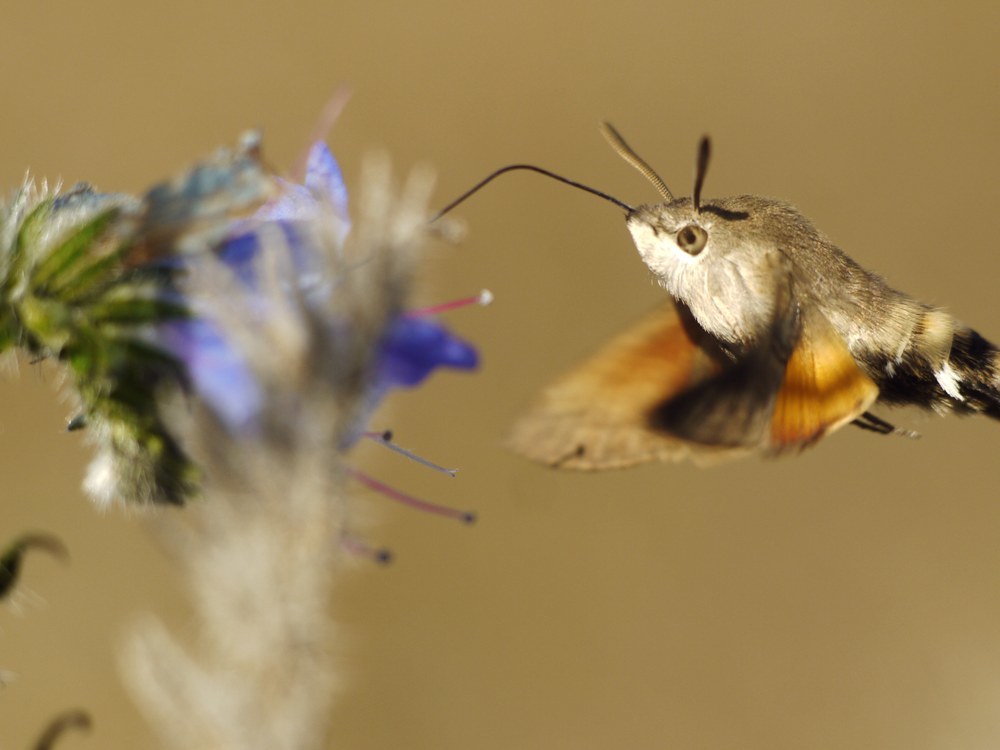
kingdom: Animalia
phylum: Arthropoda
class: Insecta
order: Lepidoptera
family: Sphingidae
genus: Macroglossum
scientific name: Macroglossum stellatarum
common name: Humming-bird hawk-moth
